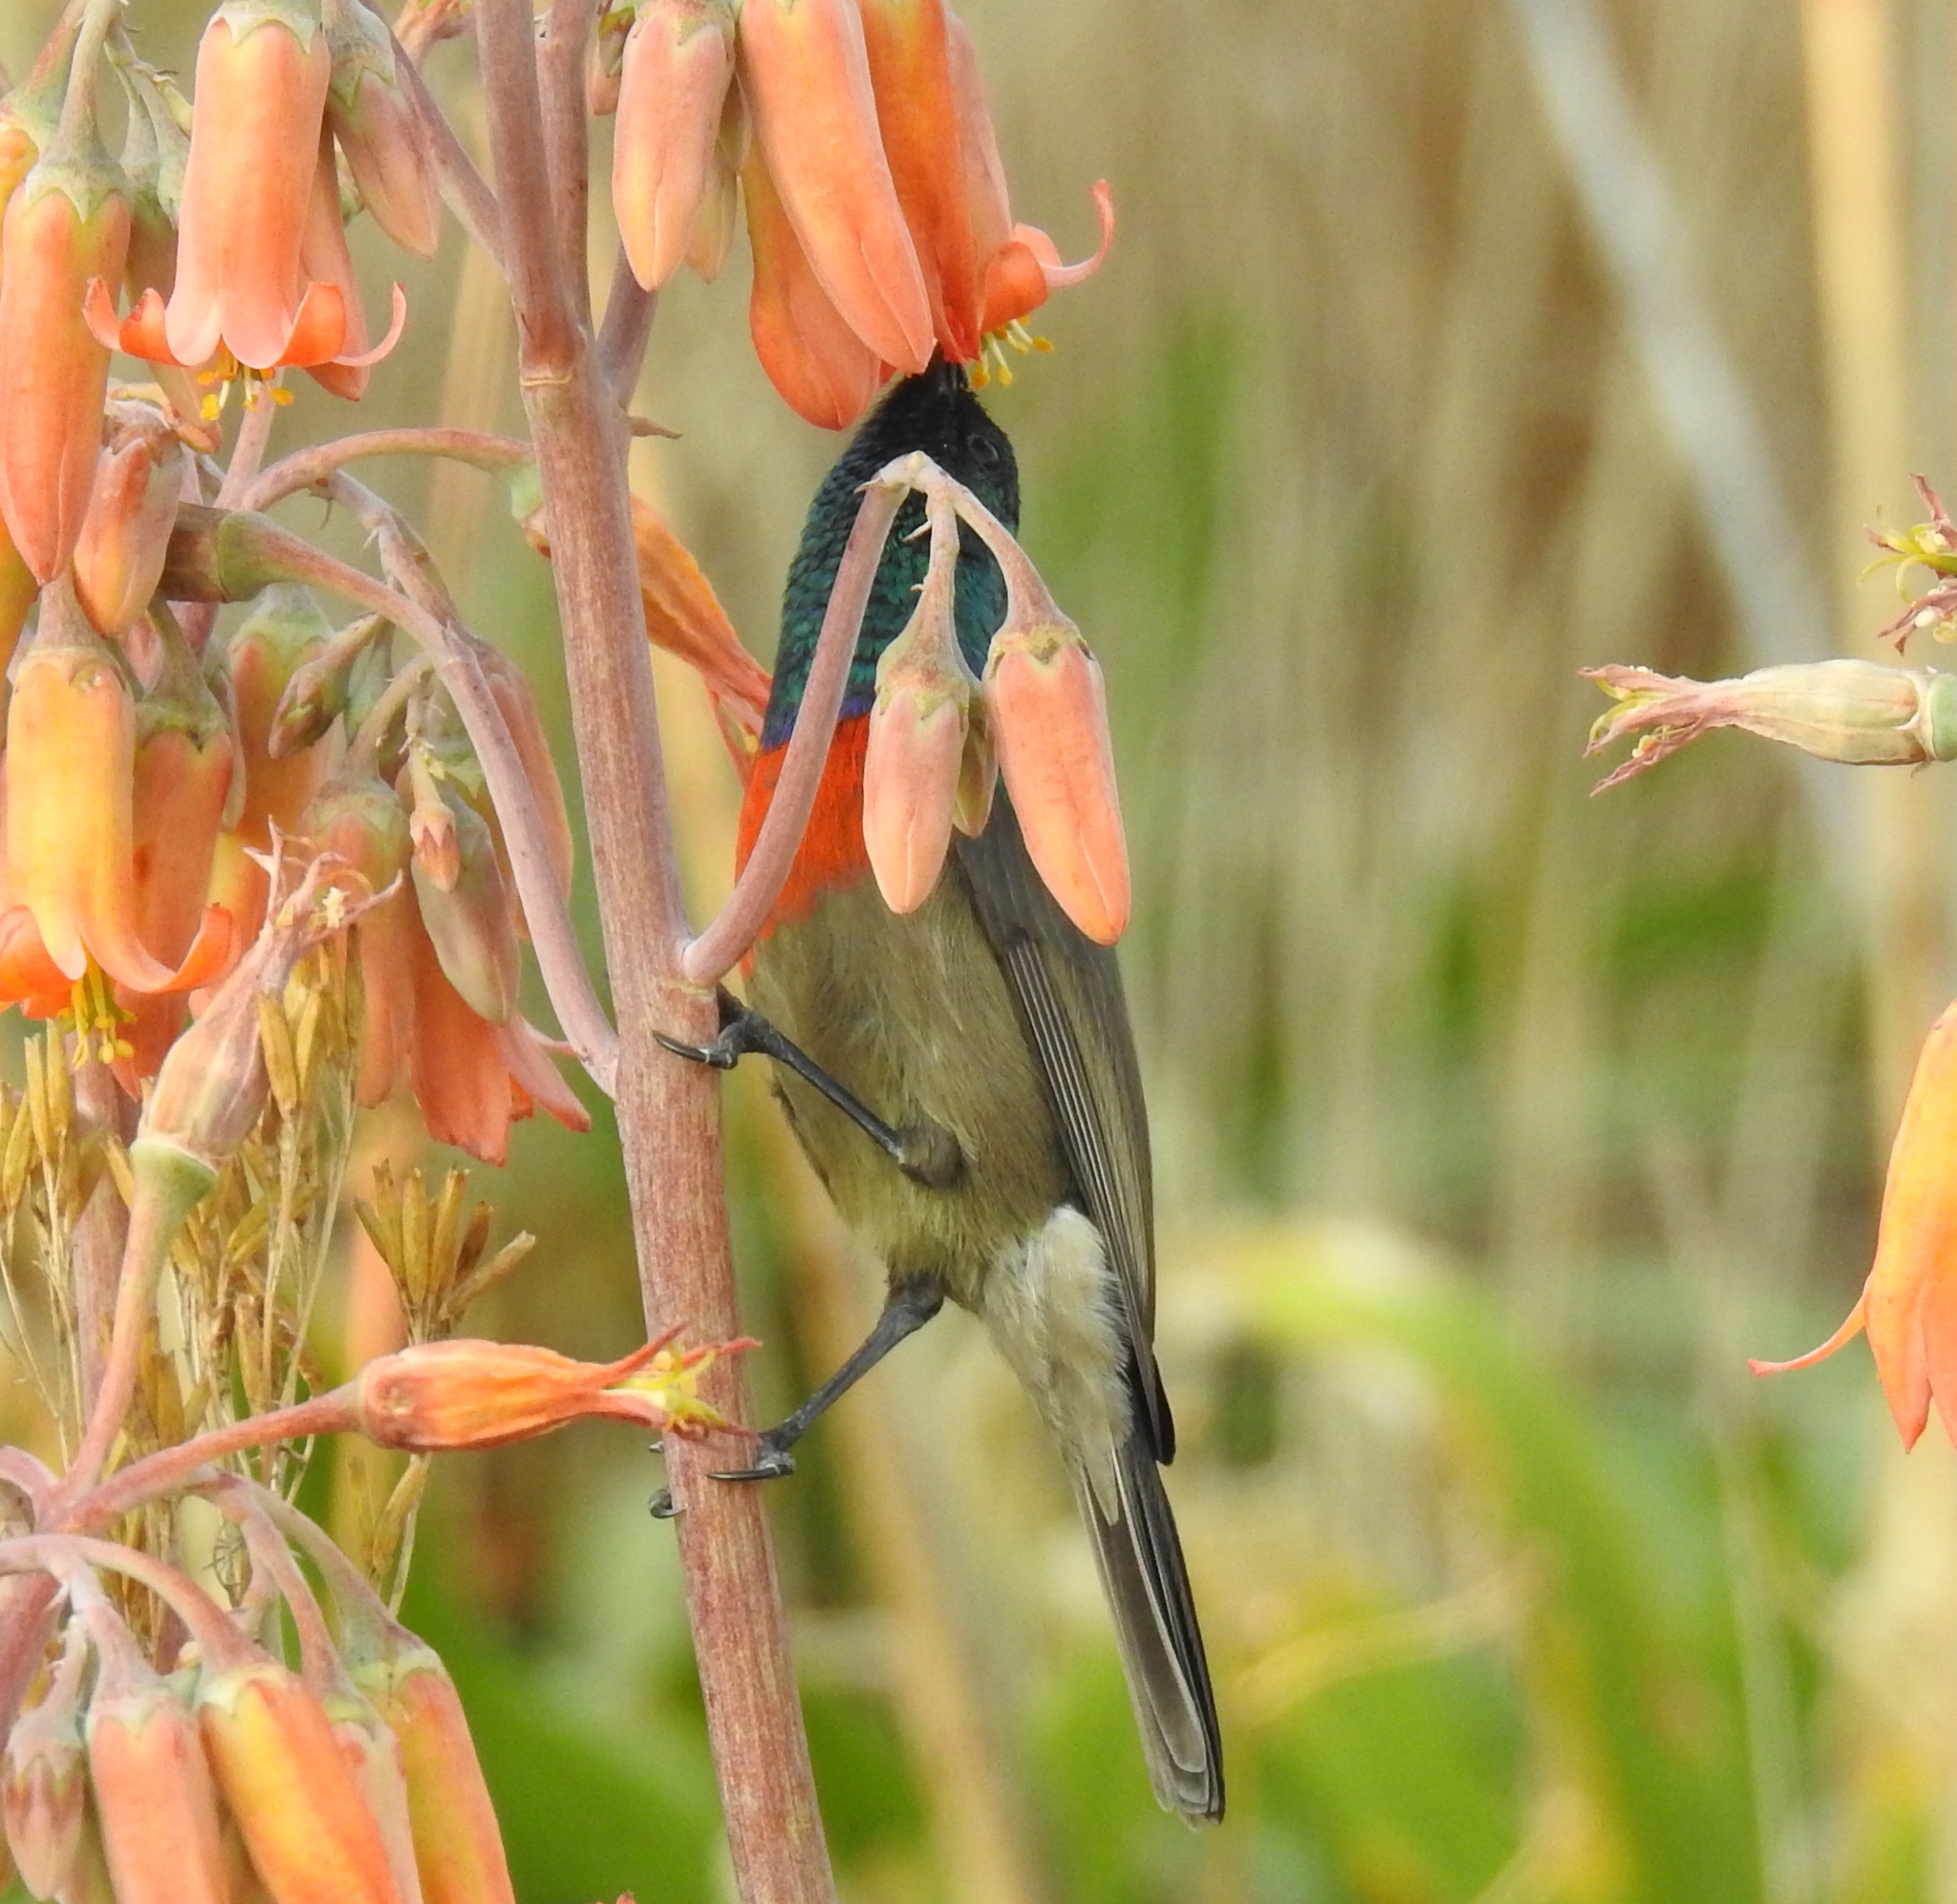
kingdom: Animalia
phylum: Chordata
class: Aves
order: Passeriformes
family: Nectariniidae
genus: Cinnyris
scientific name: Cinnyris afer
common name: Greater double-collared sunbird
